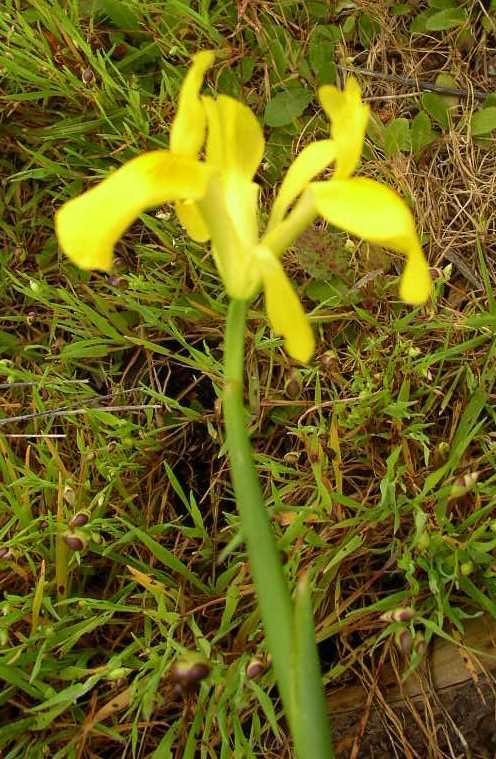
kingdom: Plantae
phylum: Tracheophyta
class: Liliopsida
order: Asparagales
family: Iridaceae
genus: Moraea
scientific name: Moraea neglecta
